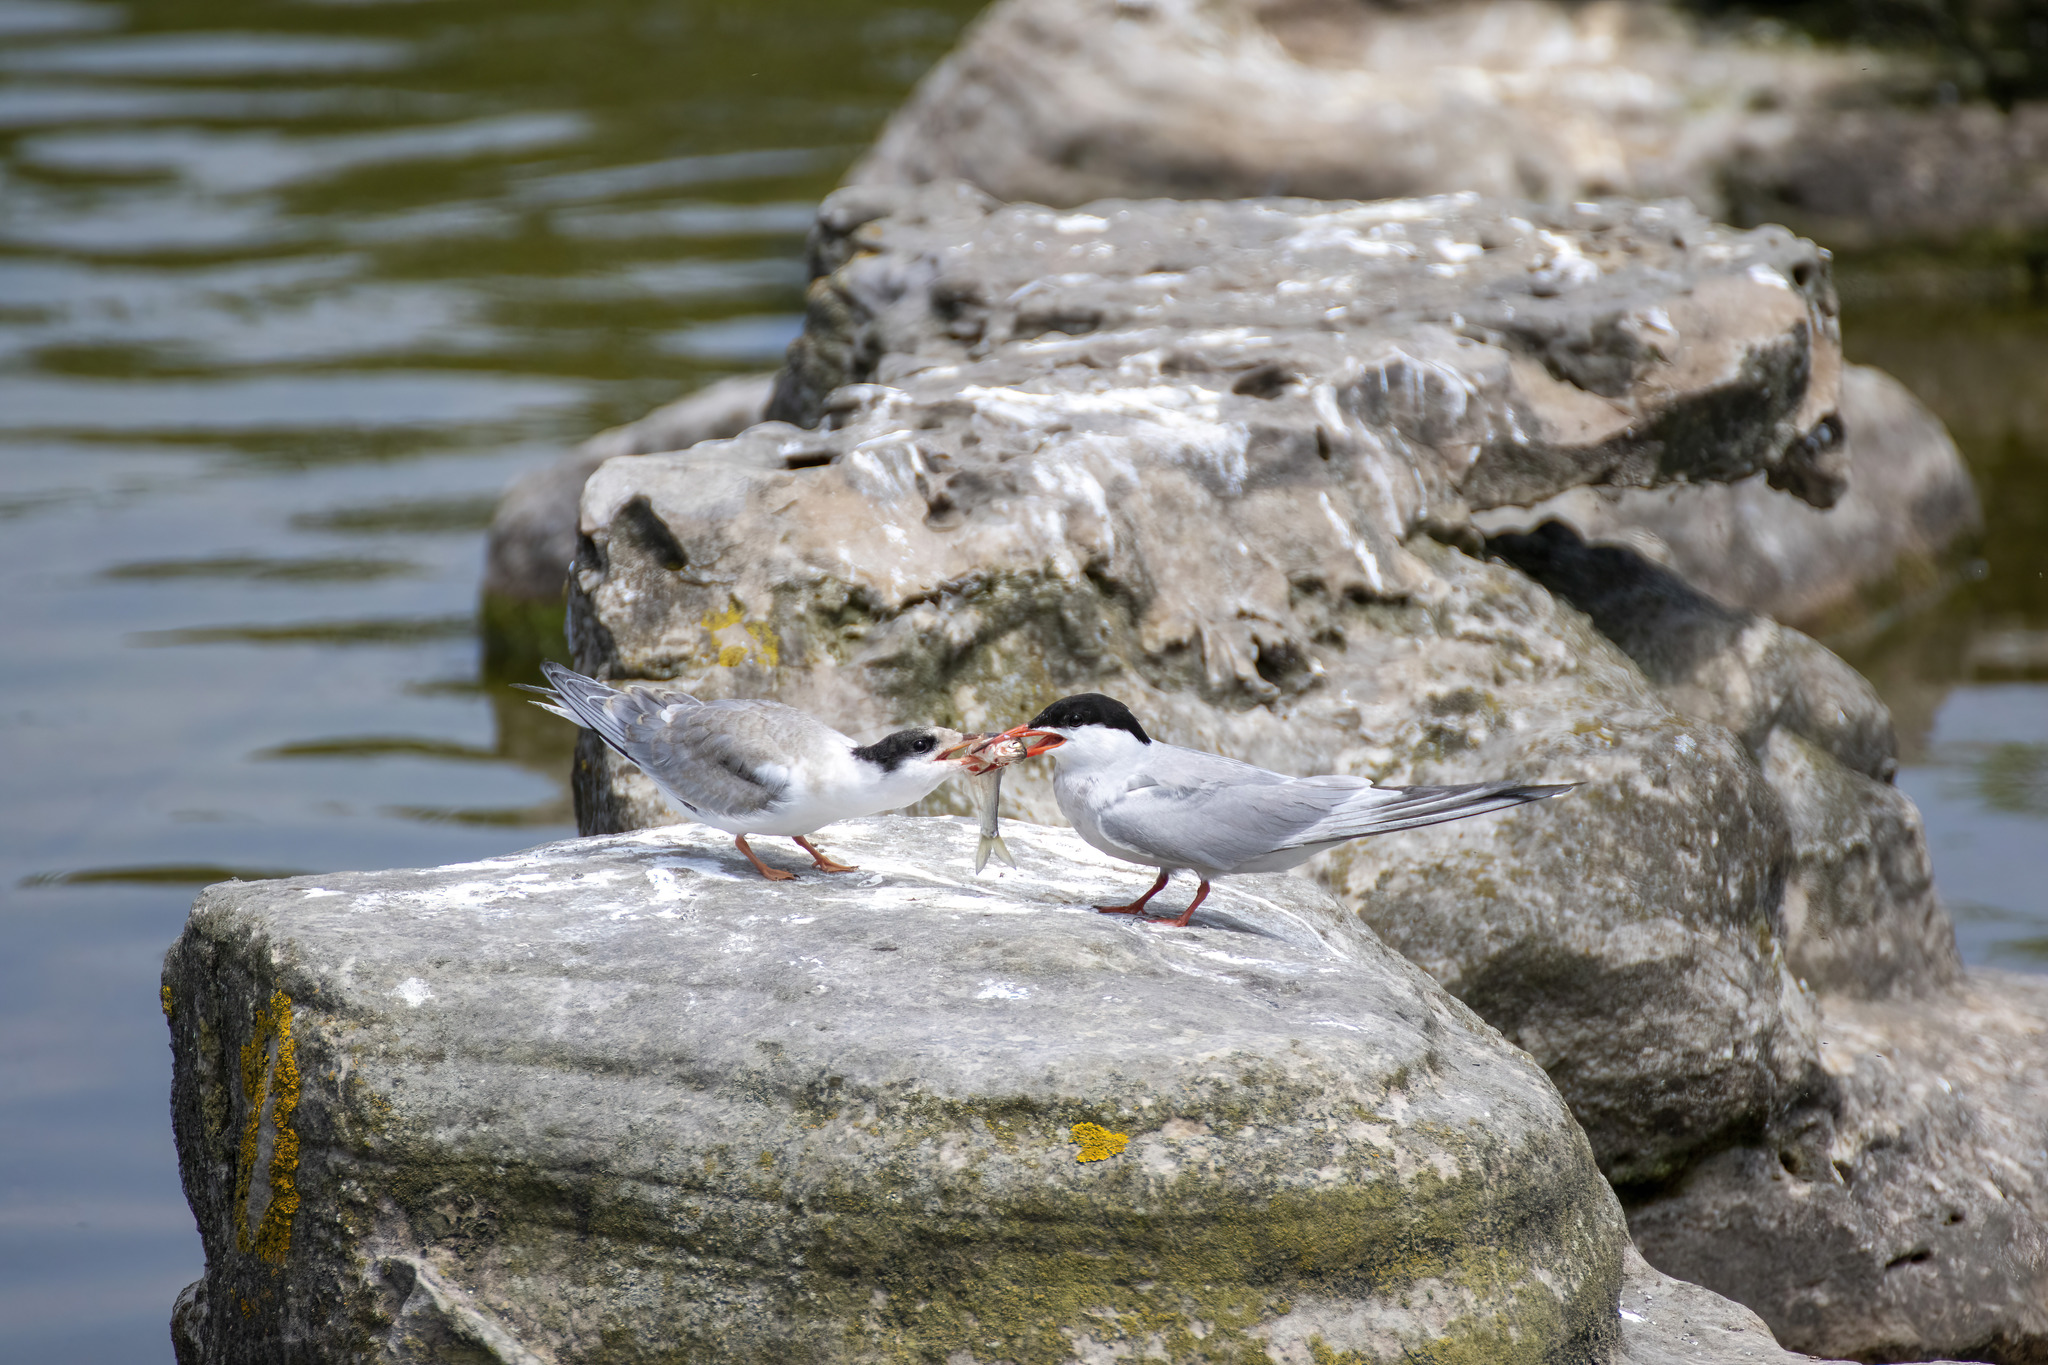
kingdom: Animalia
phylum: Chordata
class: Aves
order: Charadriiformes
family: Laridae
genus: Sterna
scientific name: Sterna hirundo
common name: Common tern
